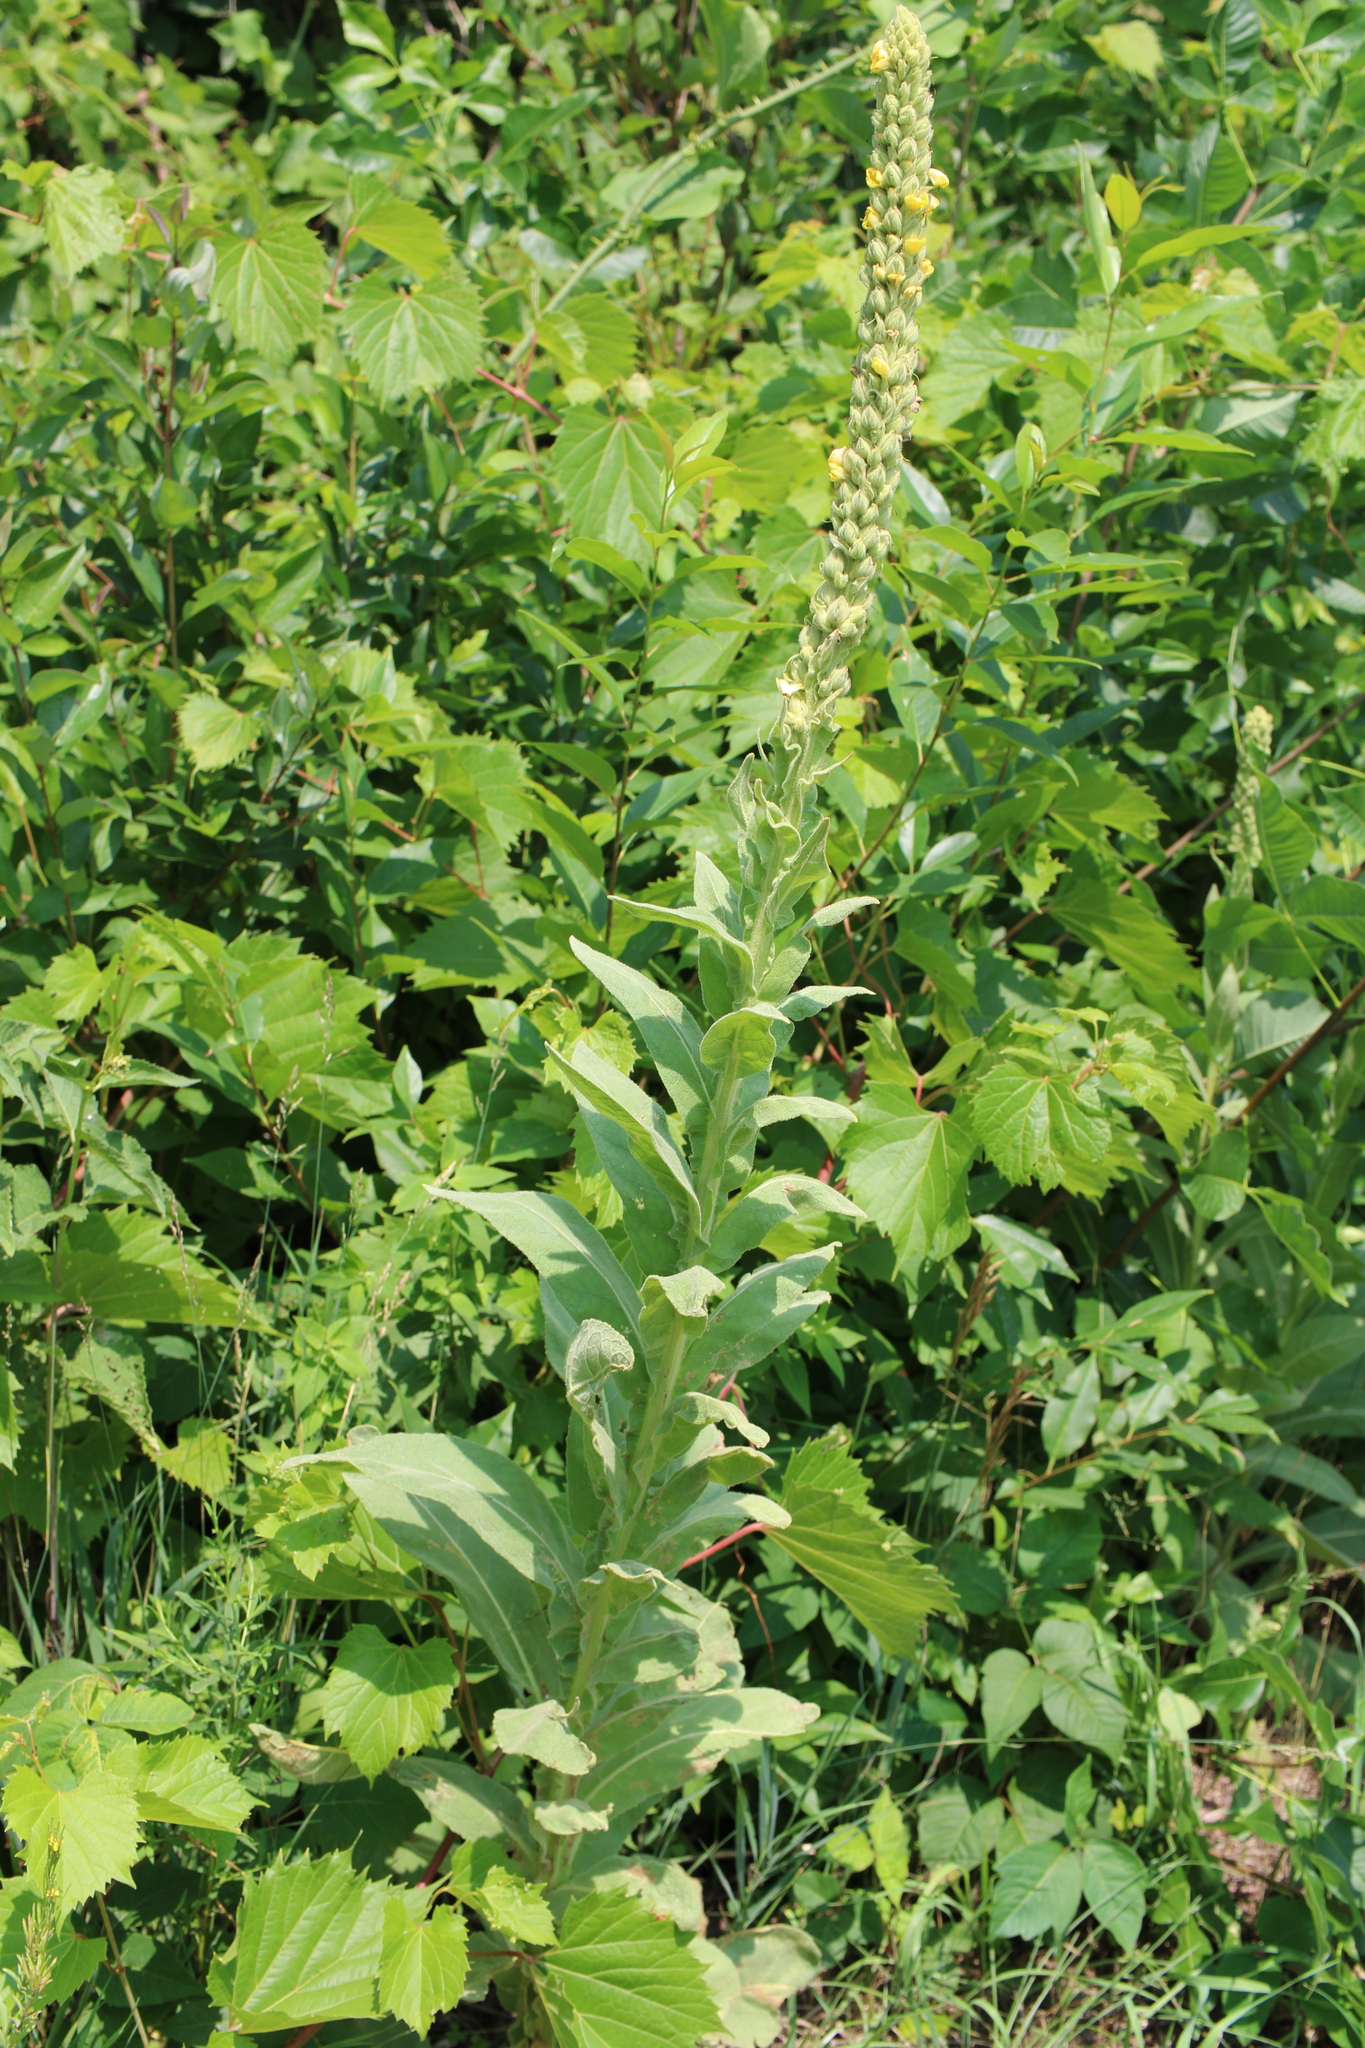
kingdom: Plantae
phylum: Tracheophyta
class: Magnoliopsida
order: Lamiales
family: Scrophulariaceae
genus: Verbascum
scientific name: Verbascum thapsus
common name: Common mullein
